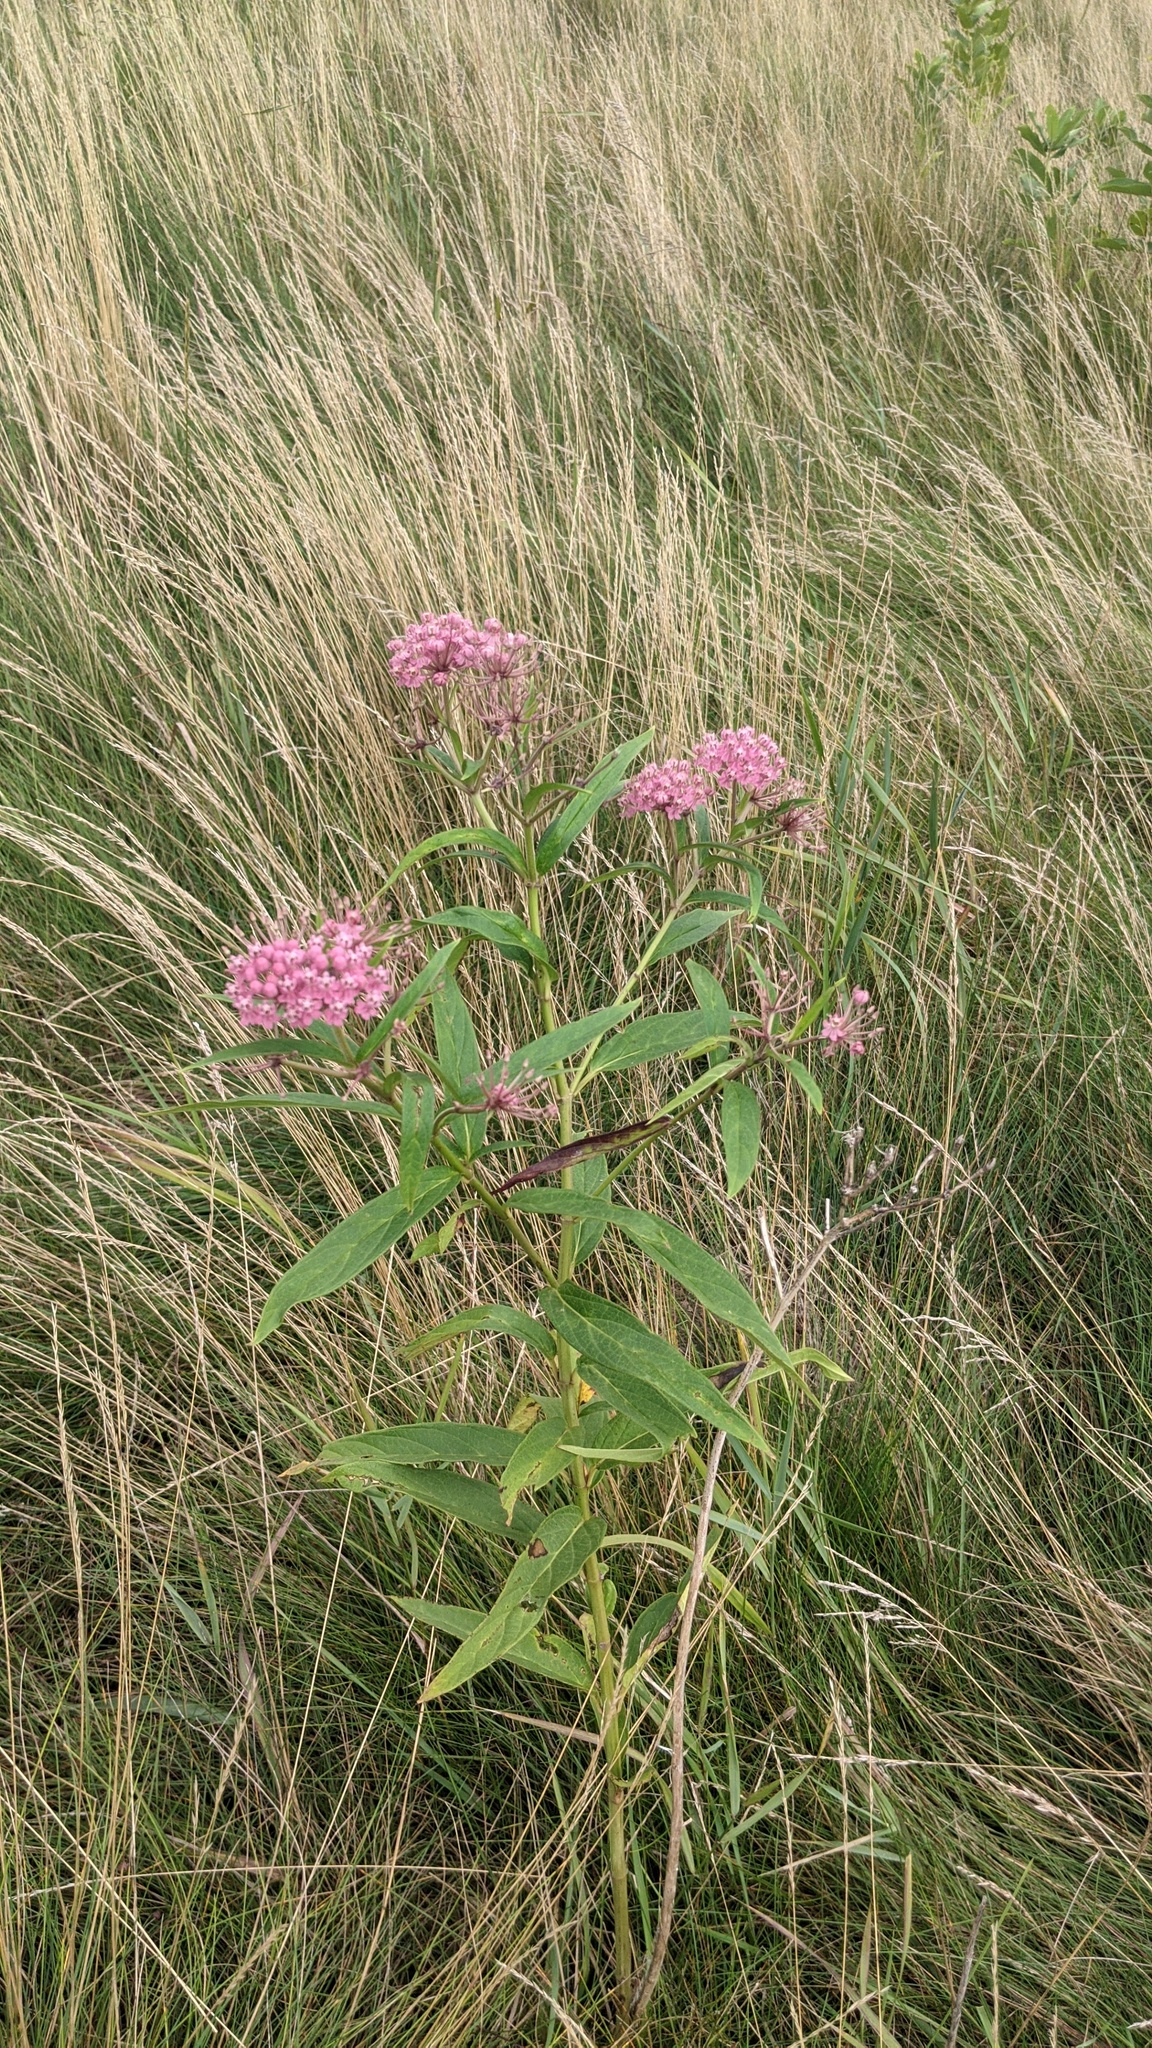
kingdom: Plantae
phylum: Tracheophyta
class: Magnoliopsida
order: Gentianales
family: Apocynaceae
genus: Asclepias
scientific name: Asclepias incarnata
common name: Swamp milkweed
